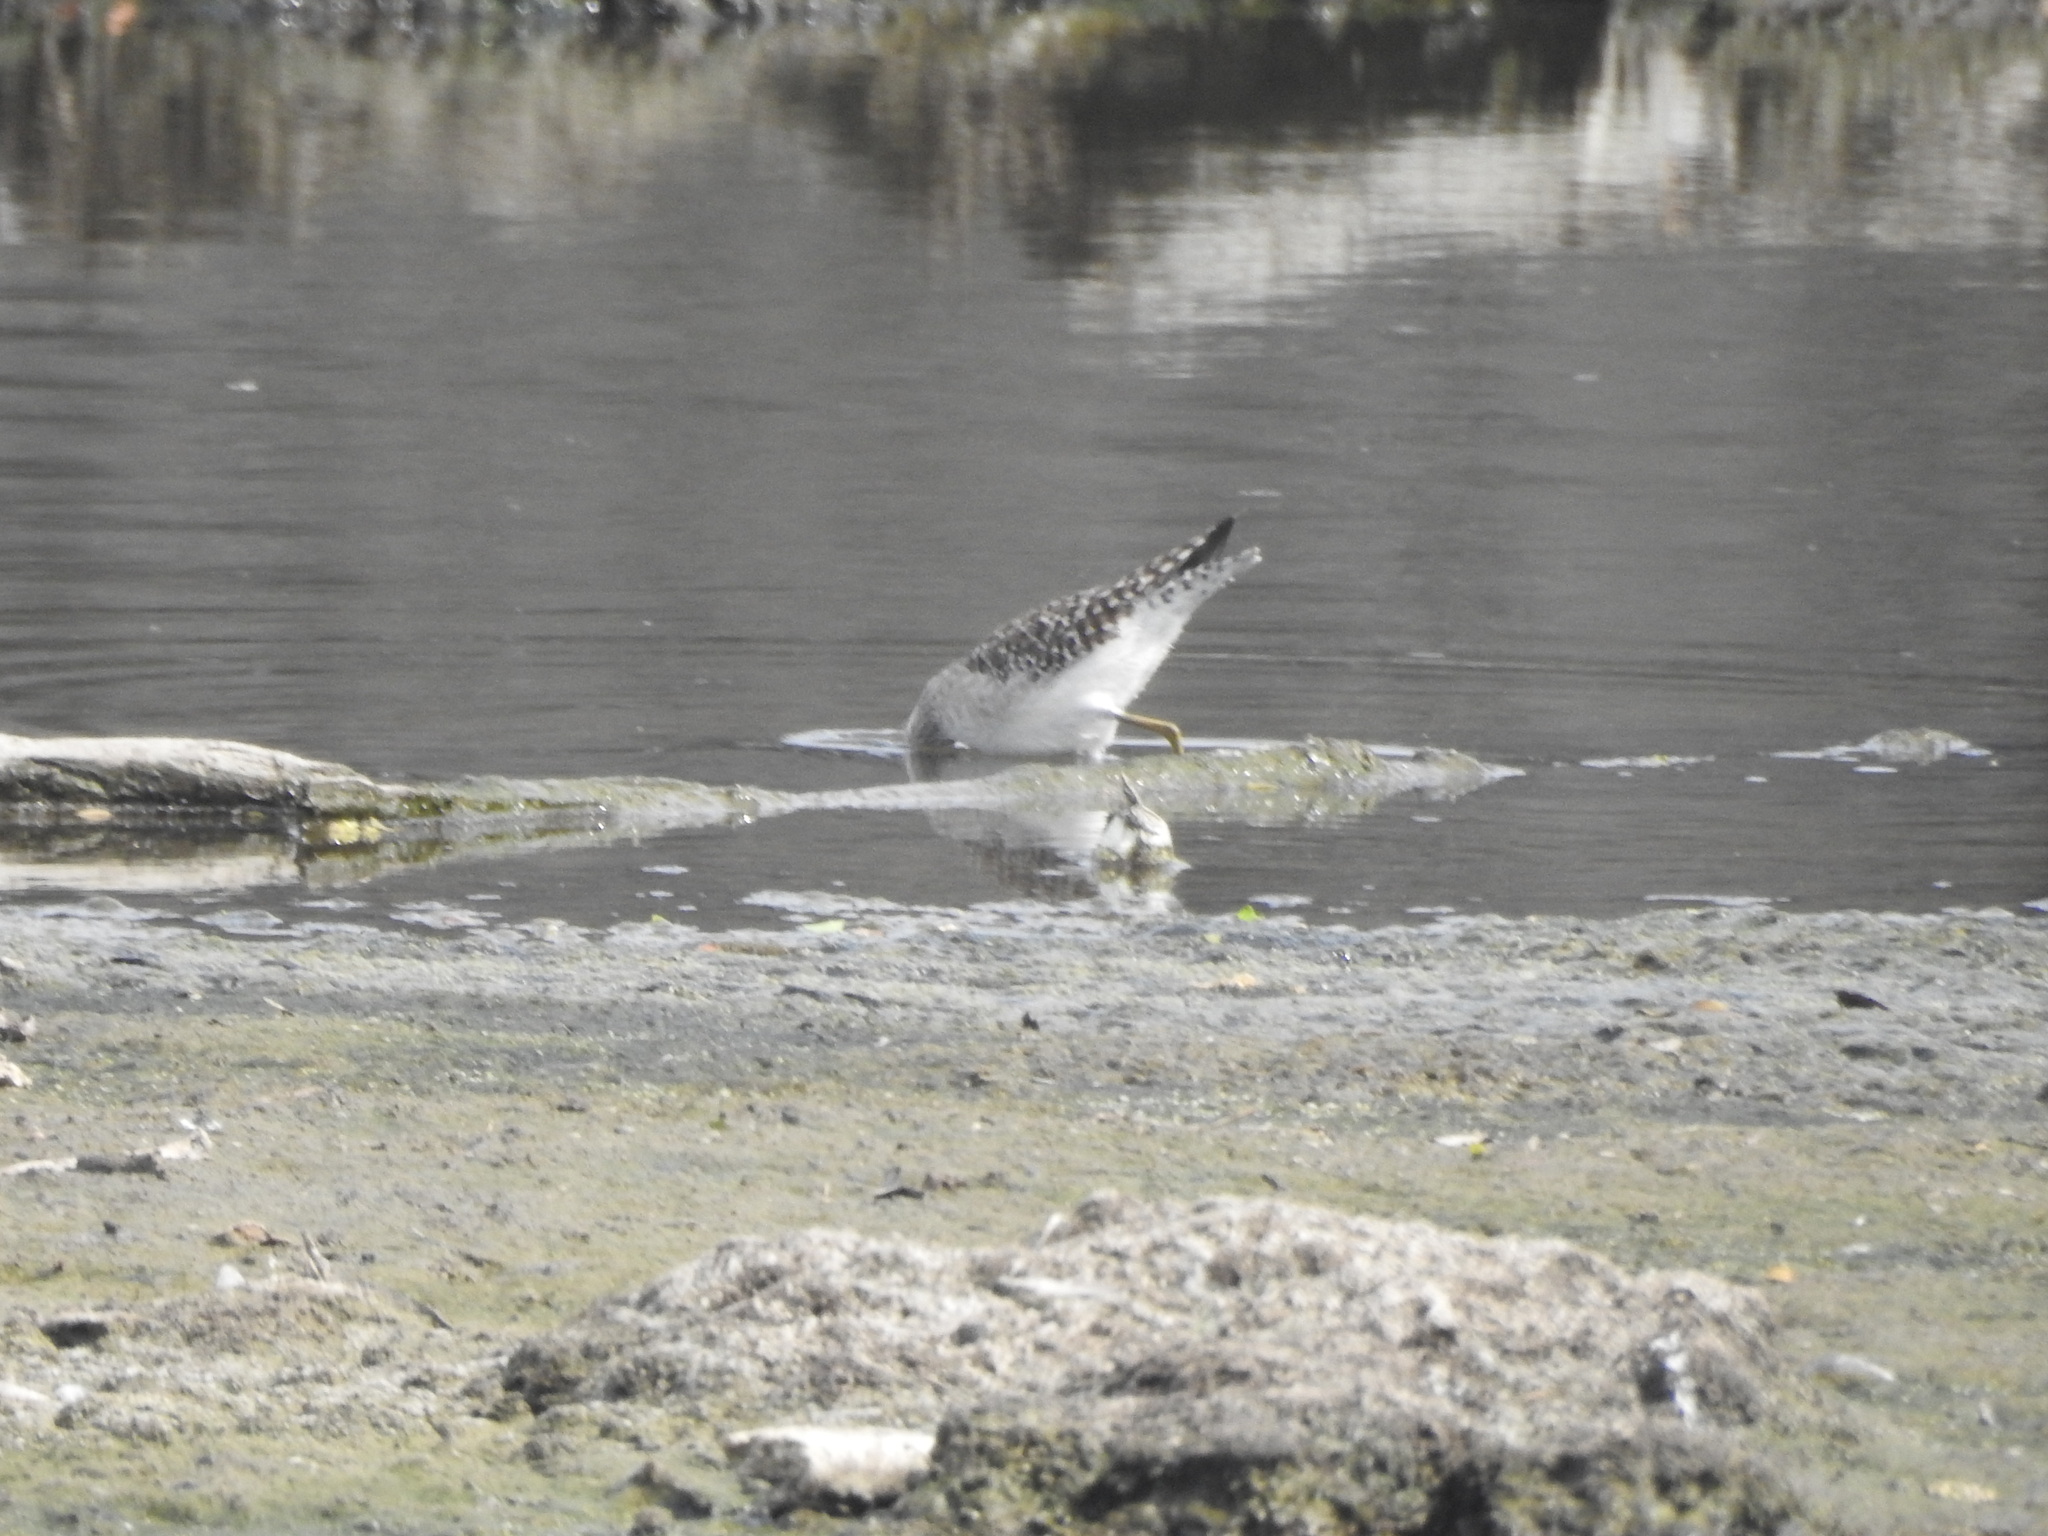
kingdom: Animalia
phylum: Chordata
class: Aves
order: Charadriiformes
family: Scolopacidae
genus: Tringa
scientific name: Tringa glareola
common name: Wood sandpiper
